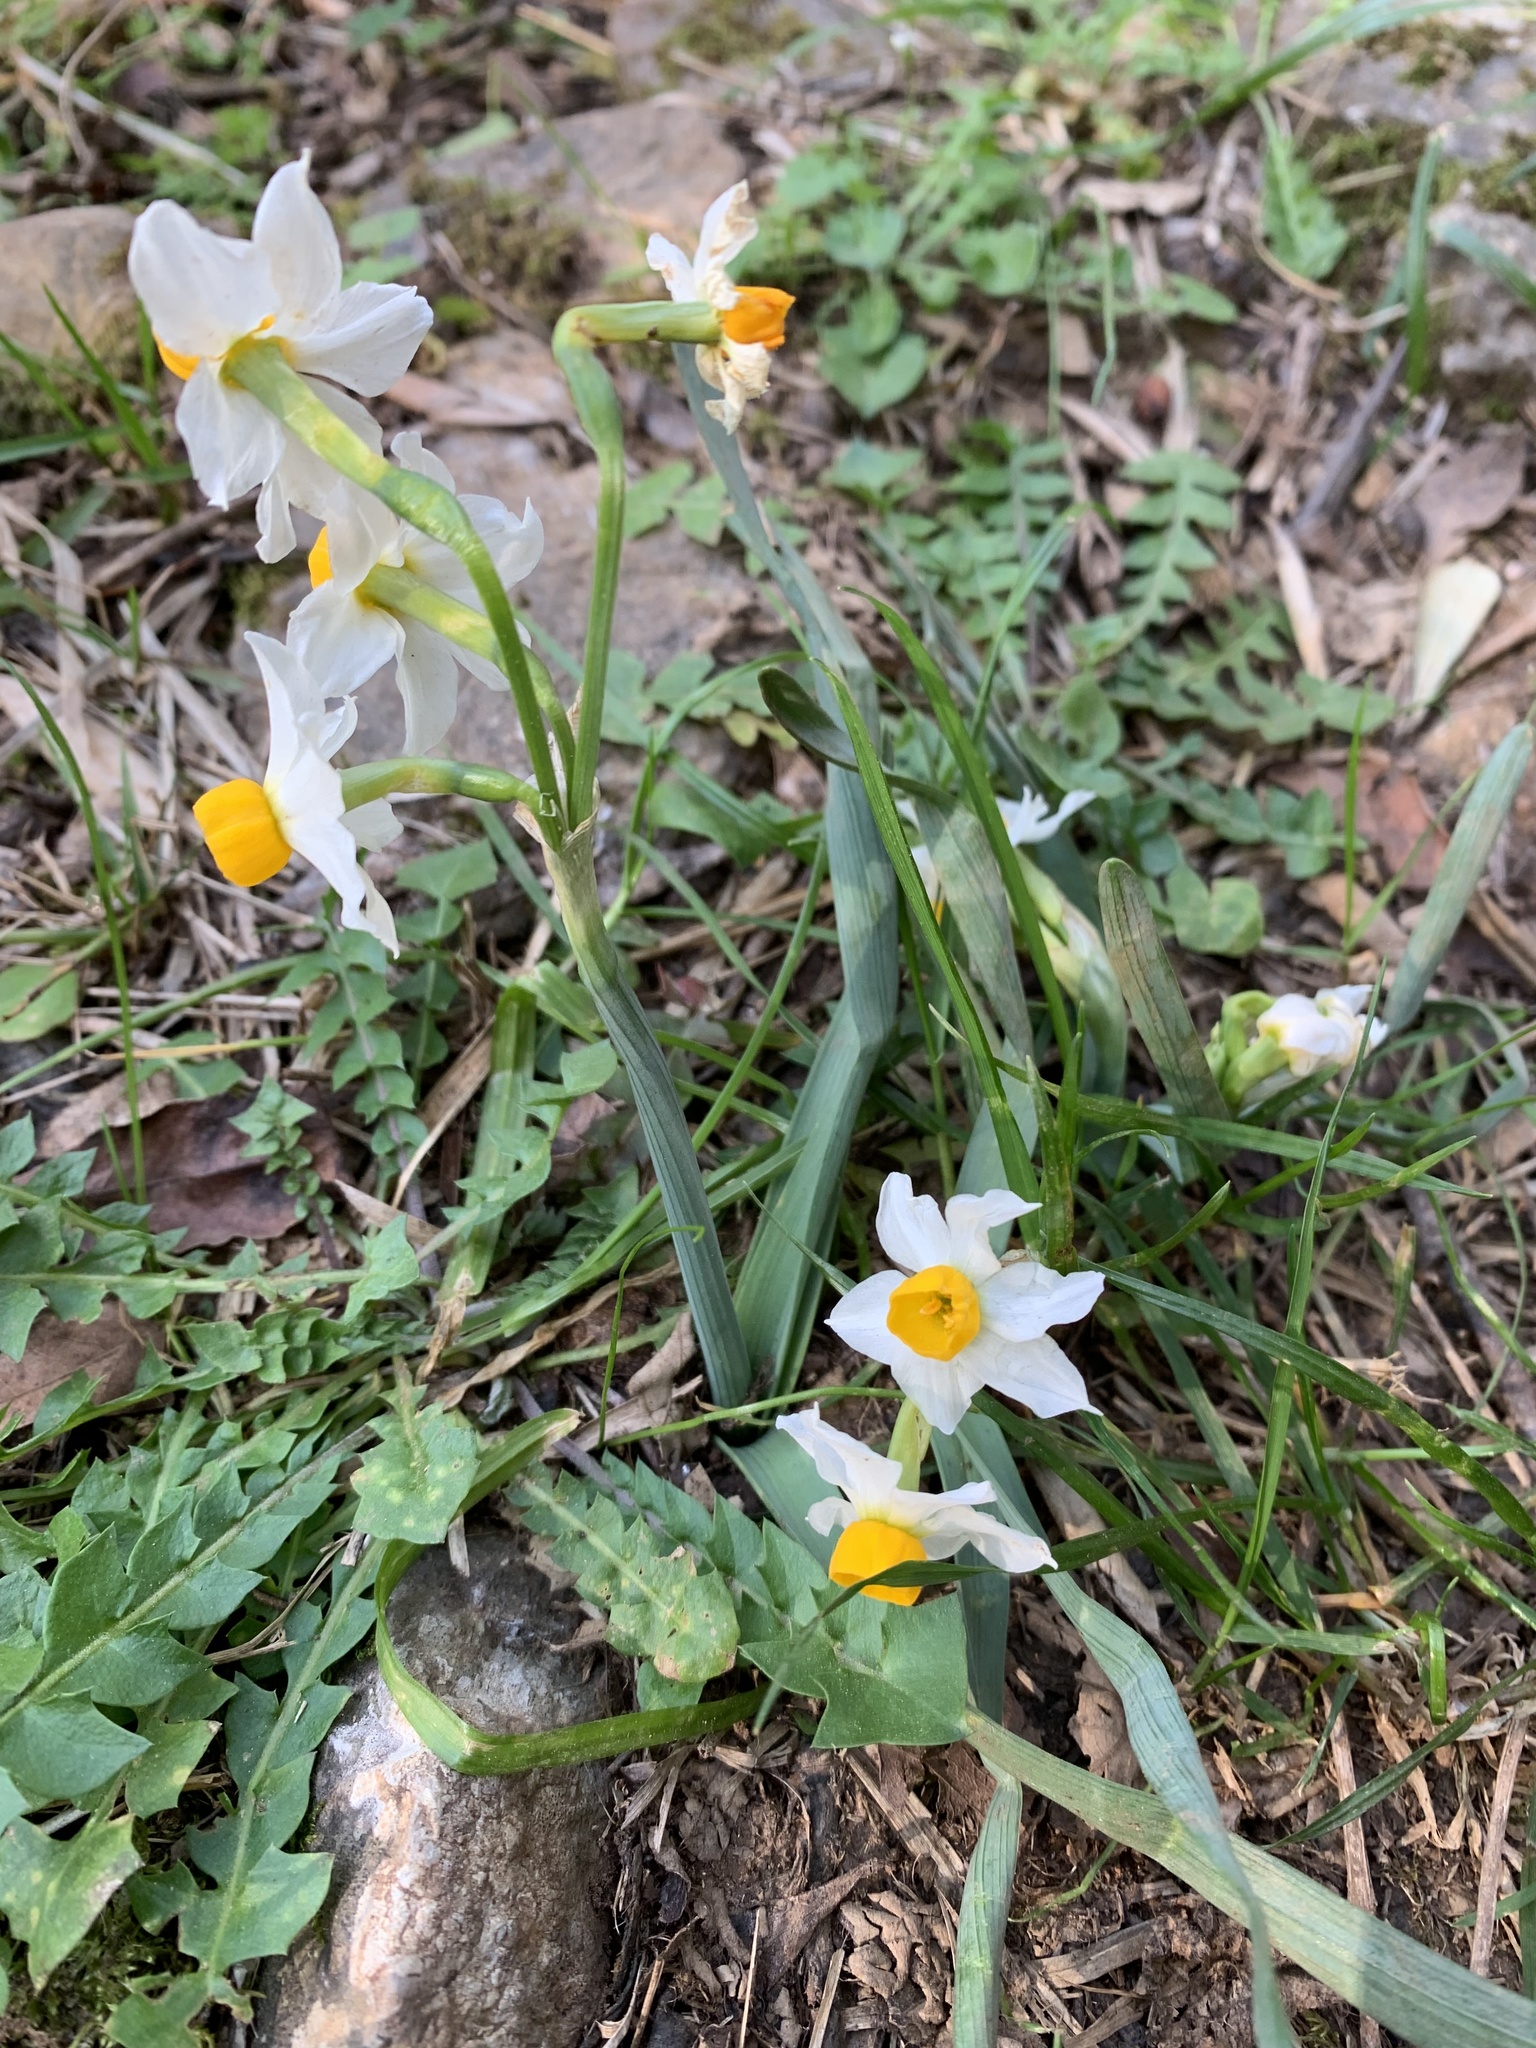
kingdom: Plantae
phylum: Tracheophyta
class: Liliopsida
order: Asparagales
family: Amaryllidaceae
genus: Narcissus
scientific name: Narcissus tazetta
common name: Bunch-flowered daffodil
